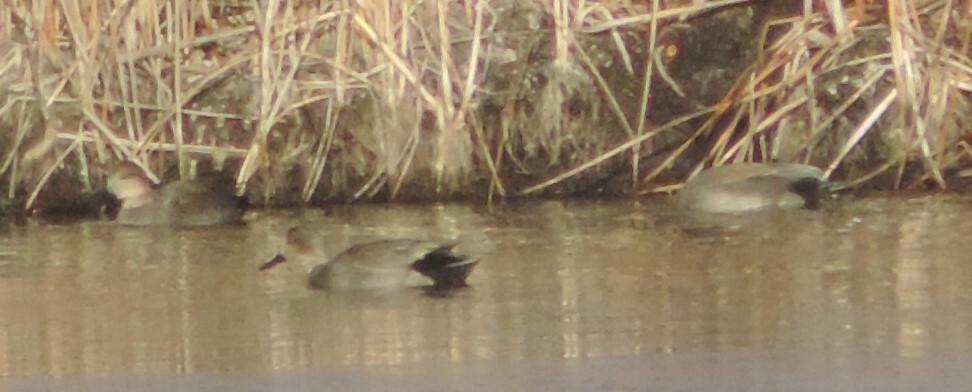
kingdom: Animalia
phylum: Chordata
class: Aves
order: Anseriformes
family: Anatidae
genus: Mareca
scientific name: Mareca strepera
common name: Gadwall
